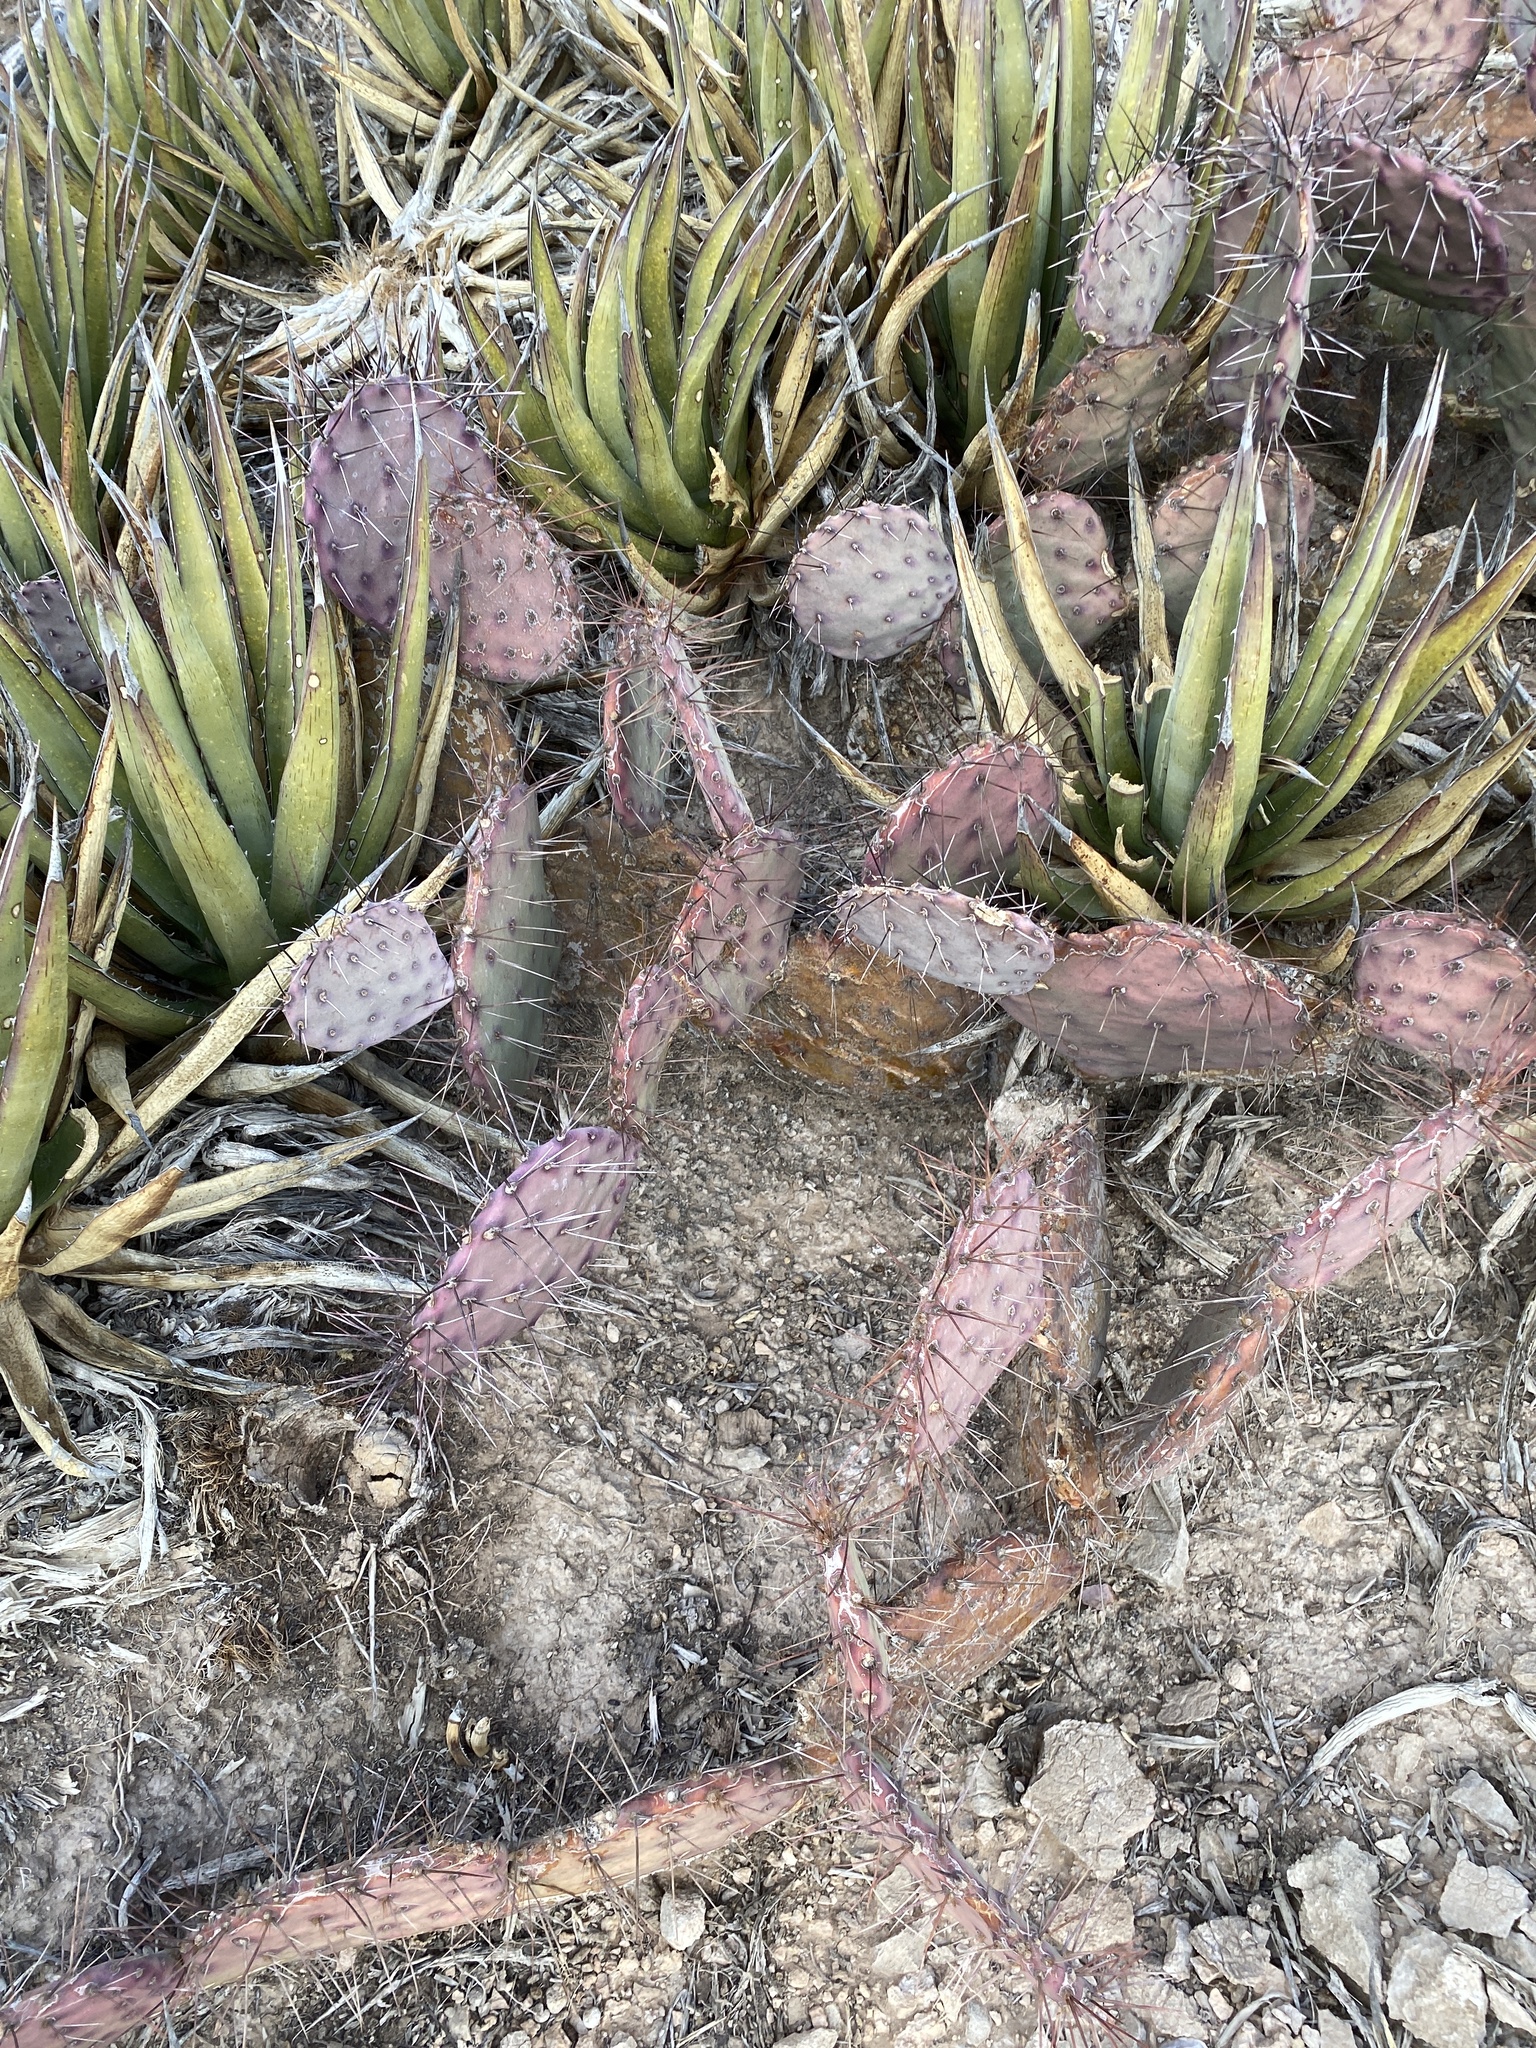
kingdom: Plantae
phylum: Tracheophyta
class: Magnoliopsida
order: Caryophyllales
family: Cactaceae
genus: Opuntia
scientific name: Opuntia macrocentra
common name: Purple prickly-pear
